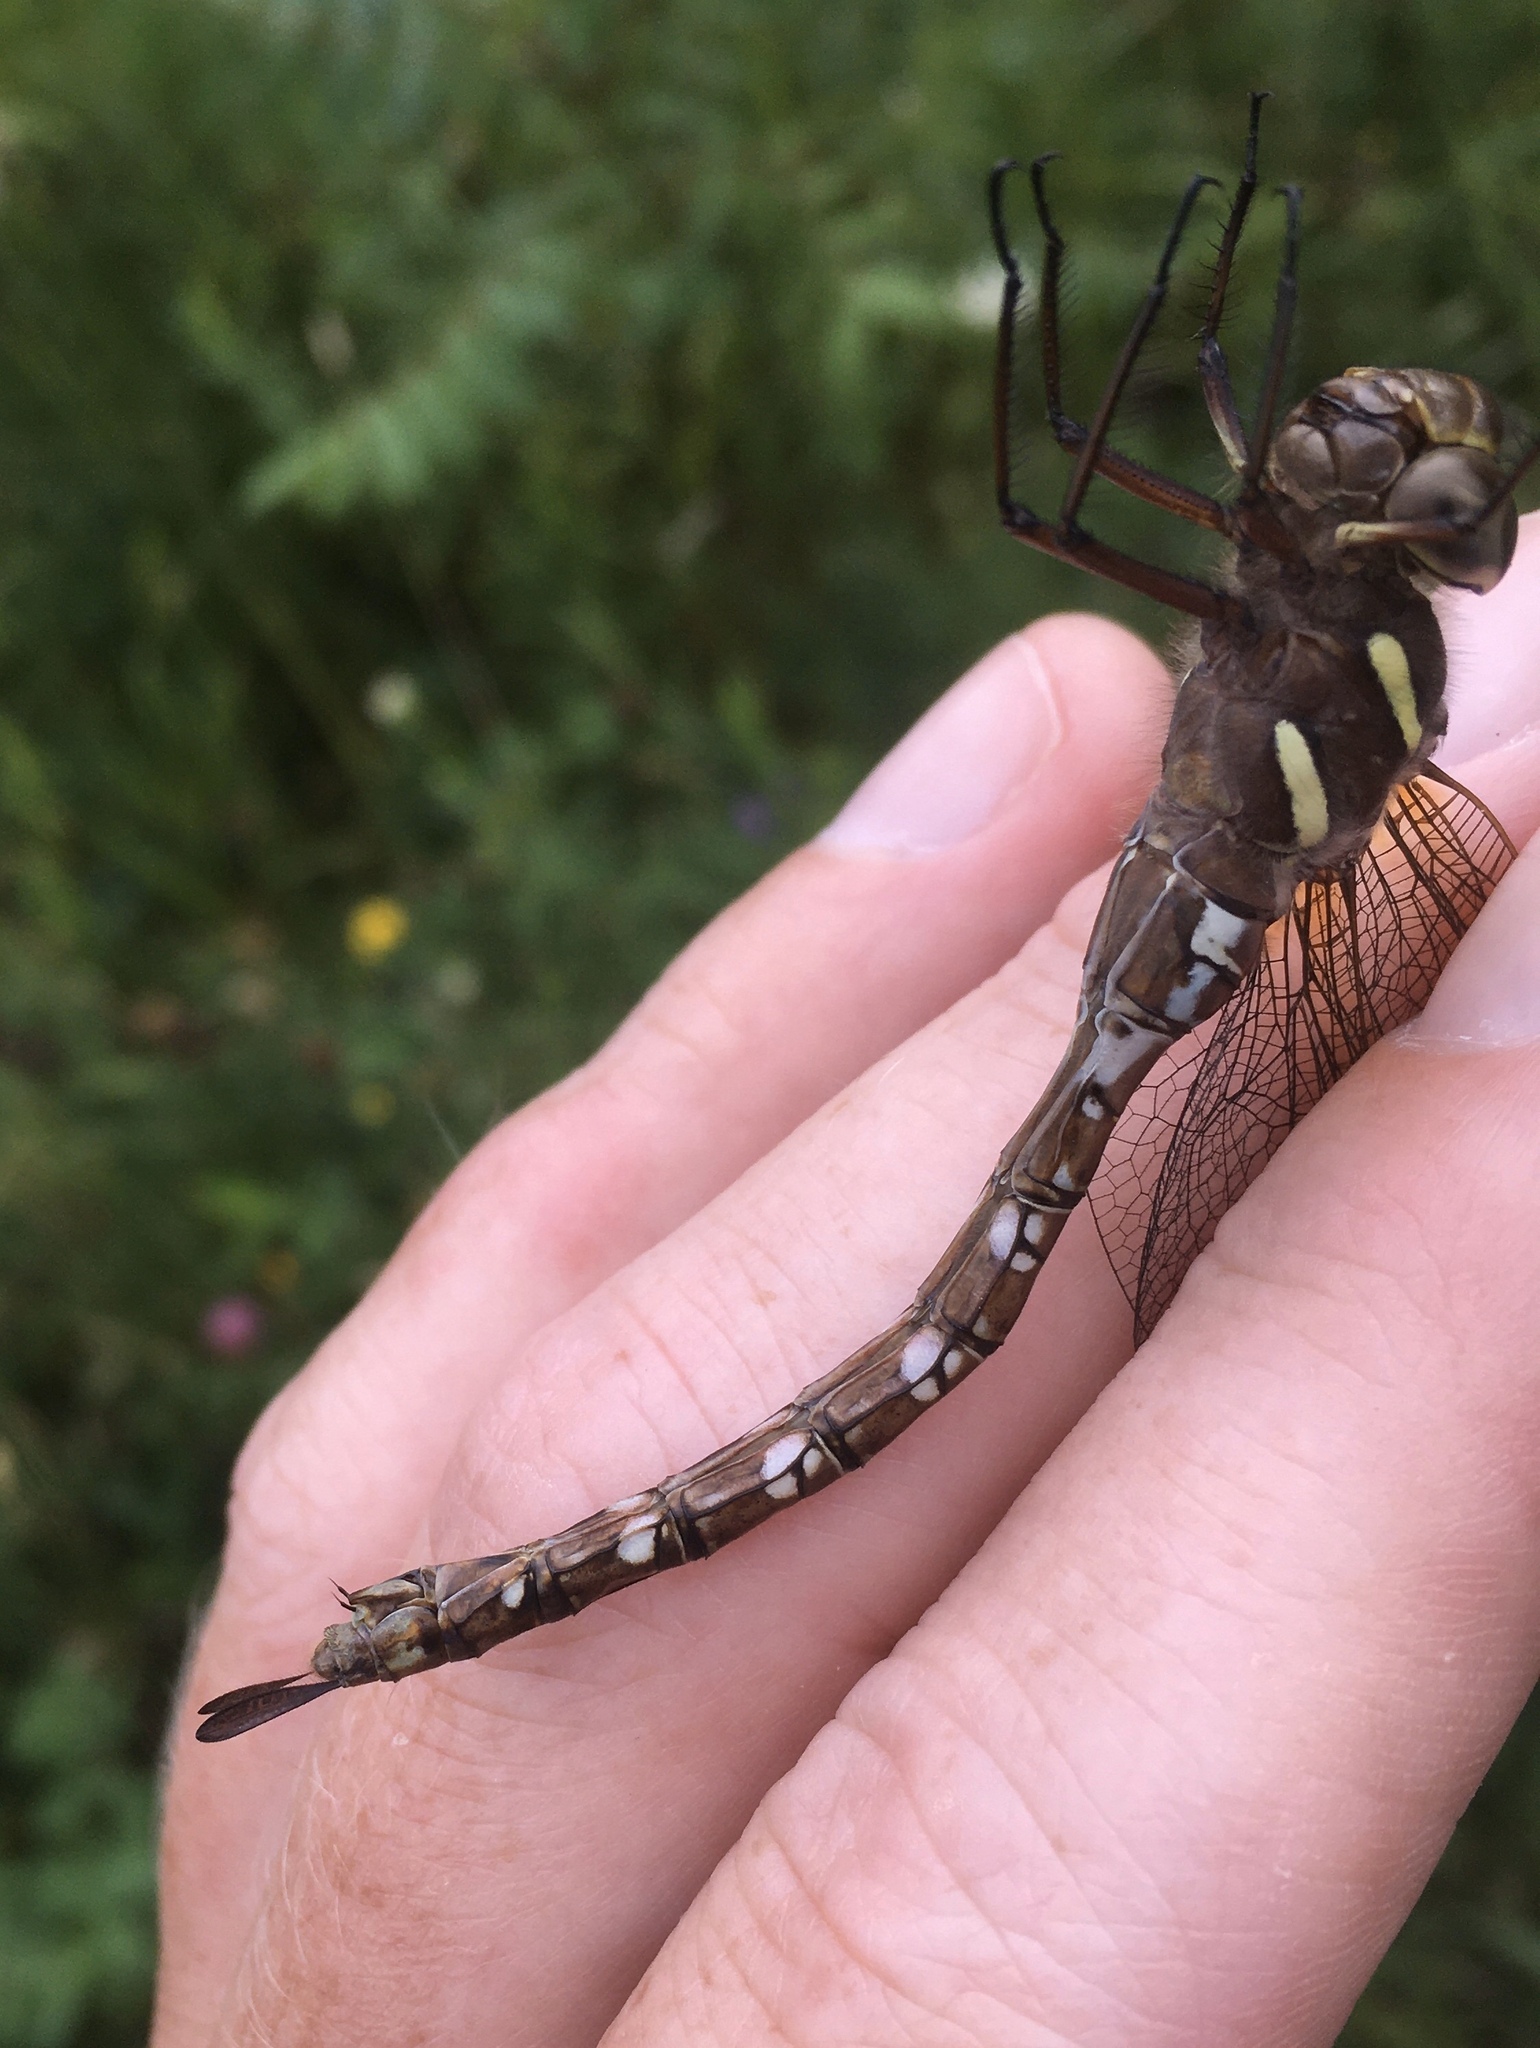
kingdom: Animalia
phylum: Arthropoda
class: Insecta
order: Odonata
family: Aeshnidae
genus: Aeshna
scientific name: Aeshna umbrosa
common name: Shadow darner
